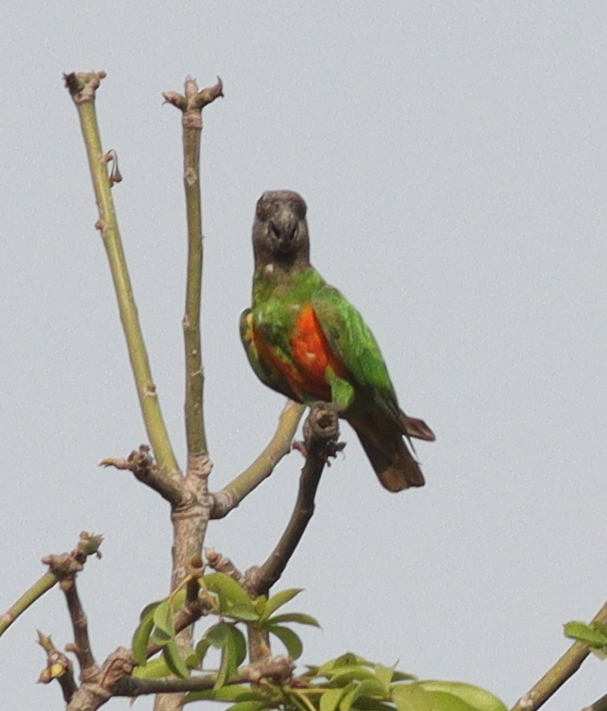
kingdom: Animalia
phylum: Chordata
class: Aves
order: Psittaciformes
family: Psittacidae
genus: Poicephalus
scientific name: Poicephalus senegalus
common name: Senegal parrot
